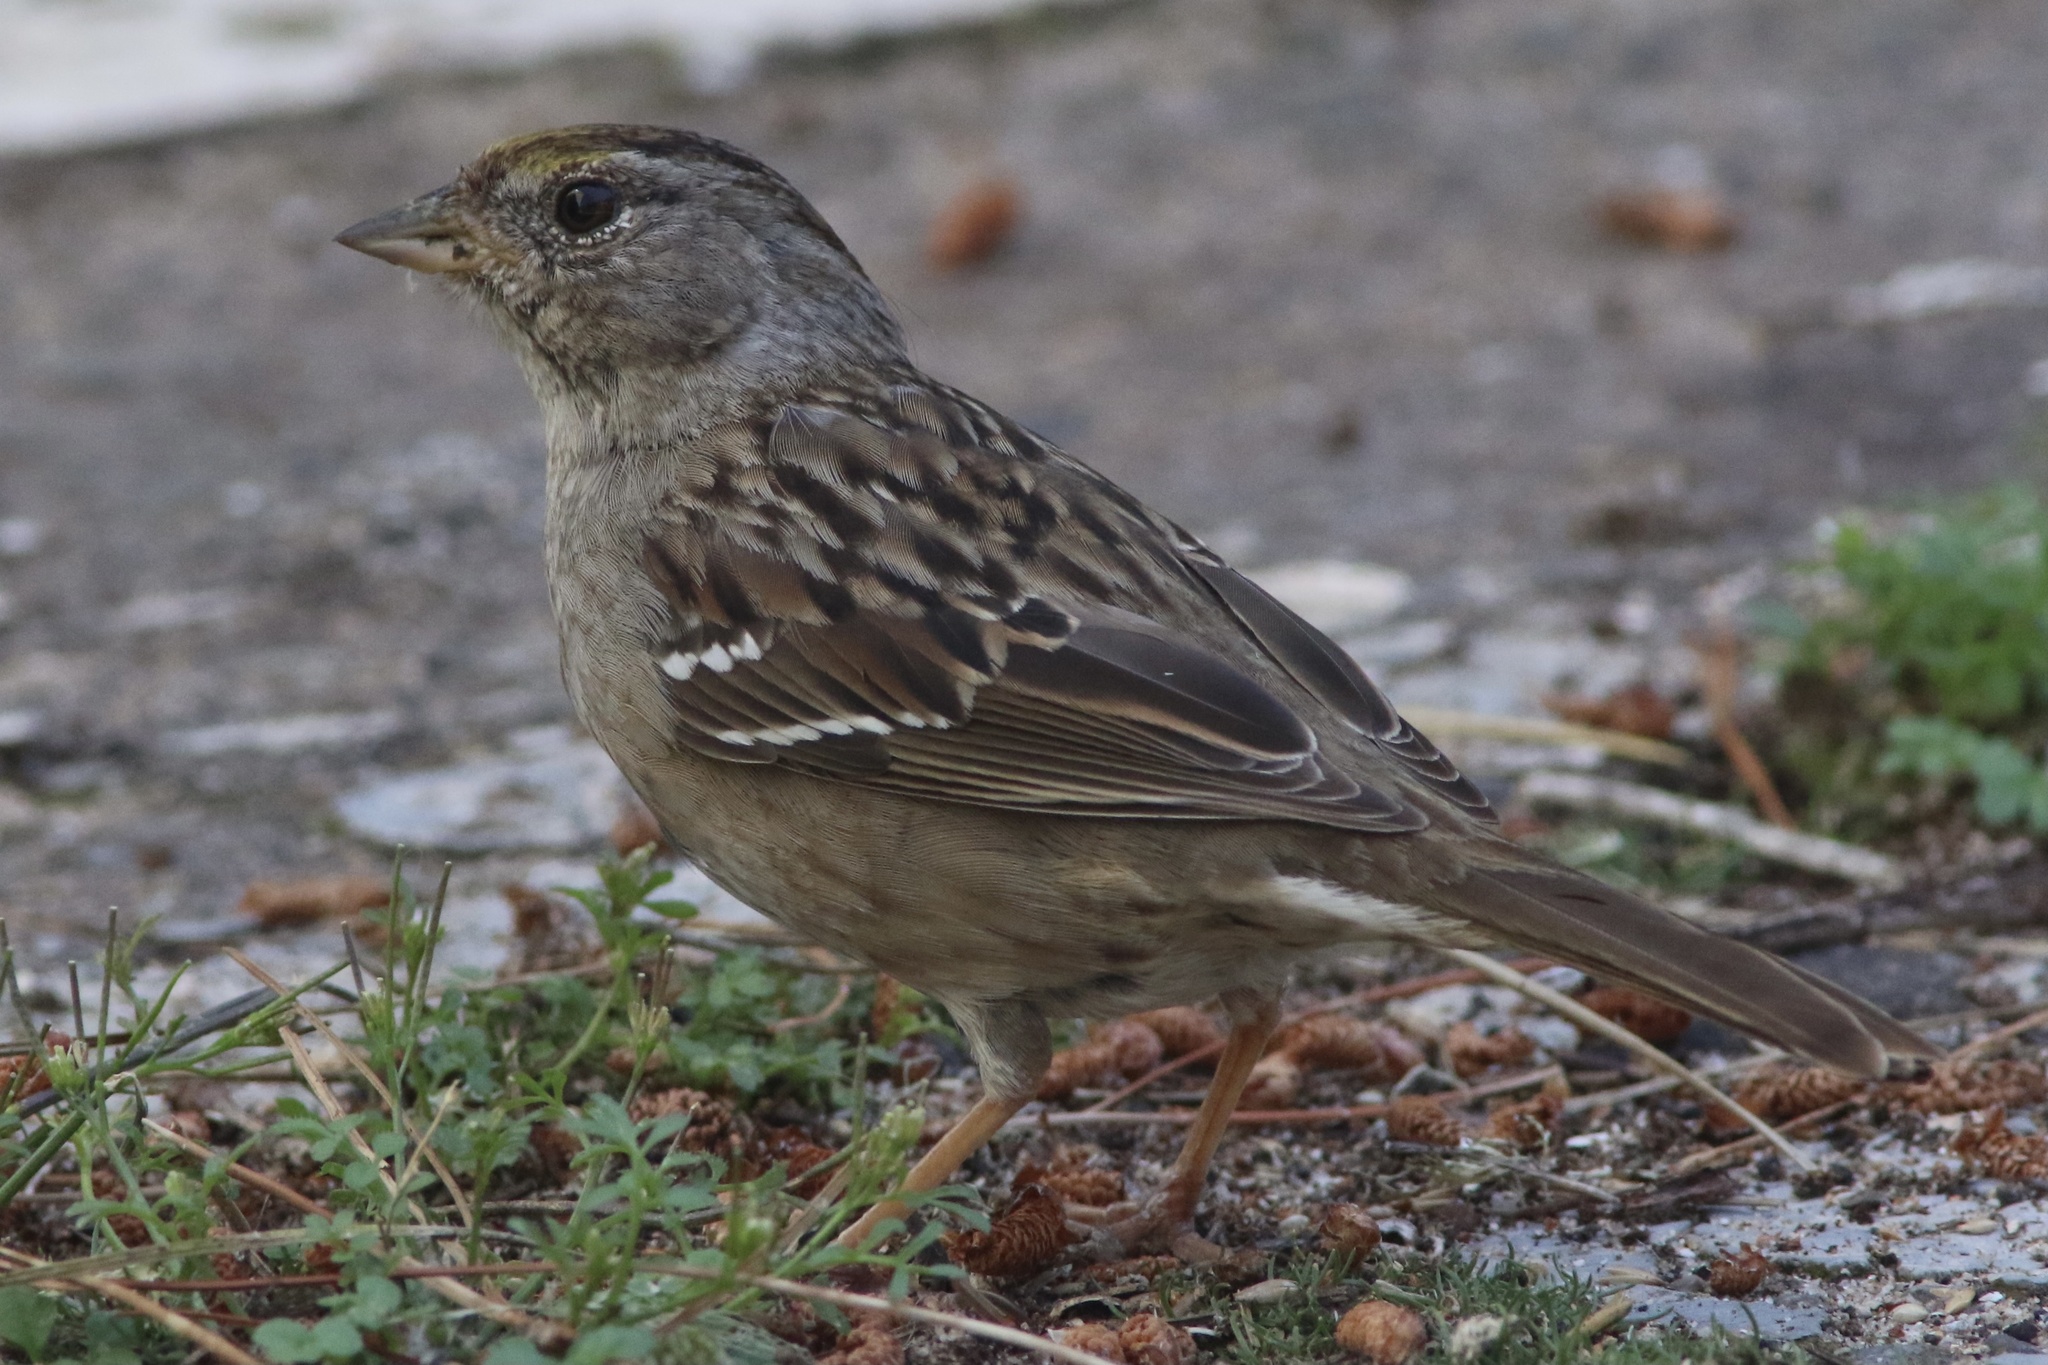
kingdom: Animalia
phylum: Chordata
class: Aves
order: Passeriformes
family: Passerellidae
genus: Zonotrichia
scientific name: Zonotrichia atricapilla
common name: Golden-crowned sparrow
